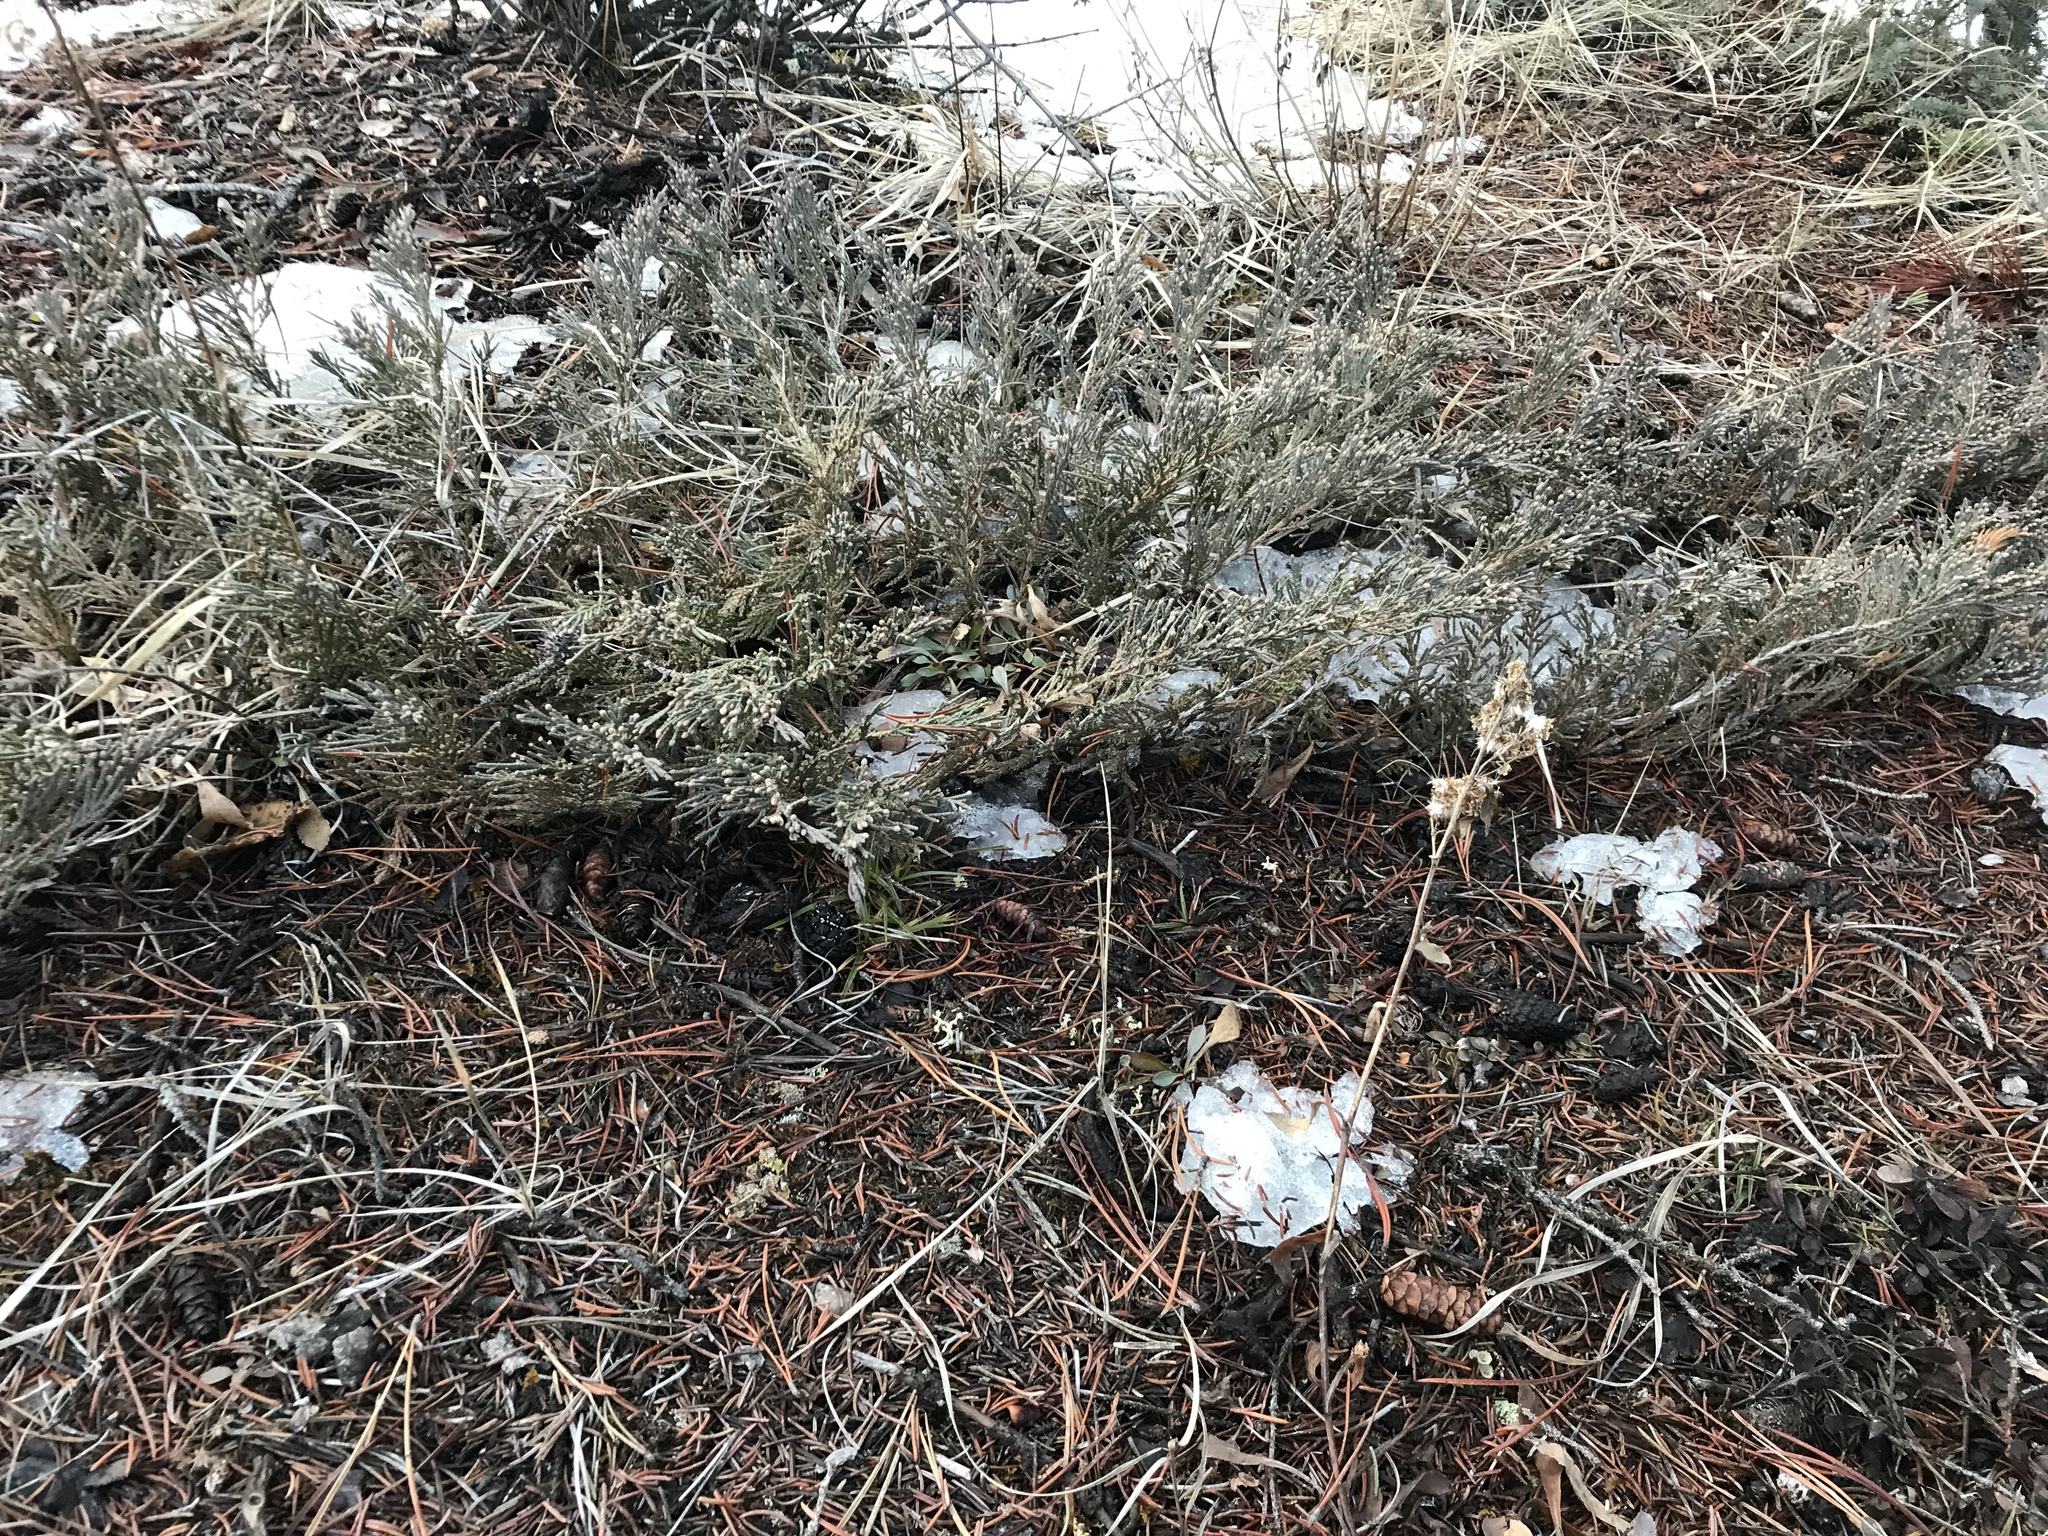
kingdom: Plantae
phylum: Tracheophyta
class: Pinopsida
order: Pinales
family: Cupressaceae
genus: Juniperus
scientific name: Juniperus horizontalis
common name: Creeping juniper
